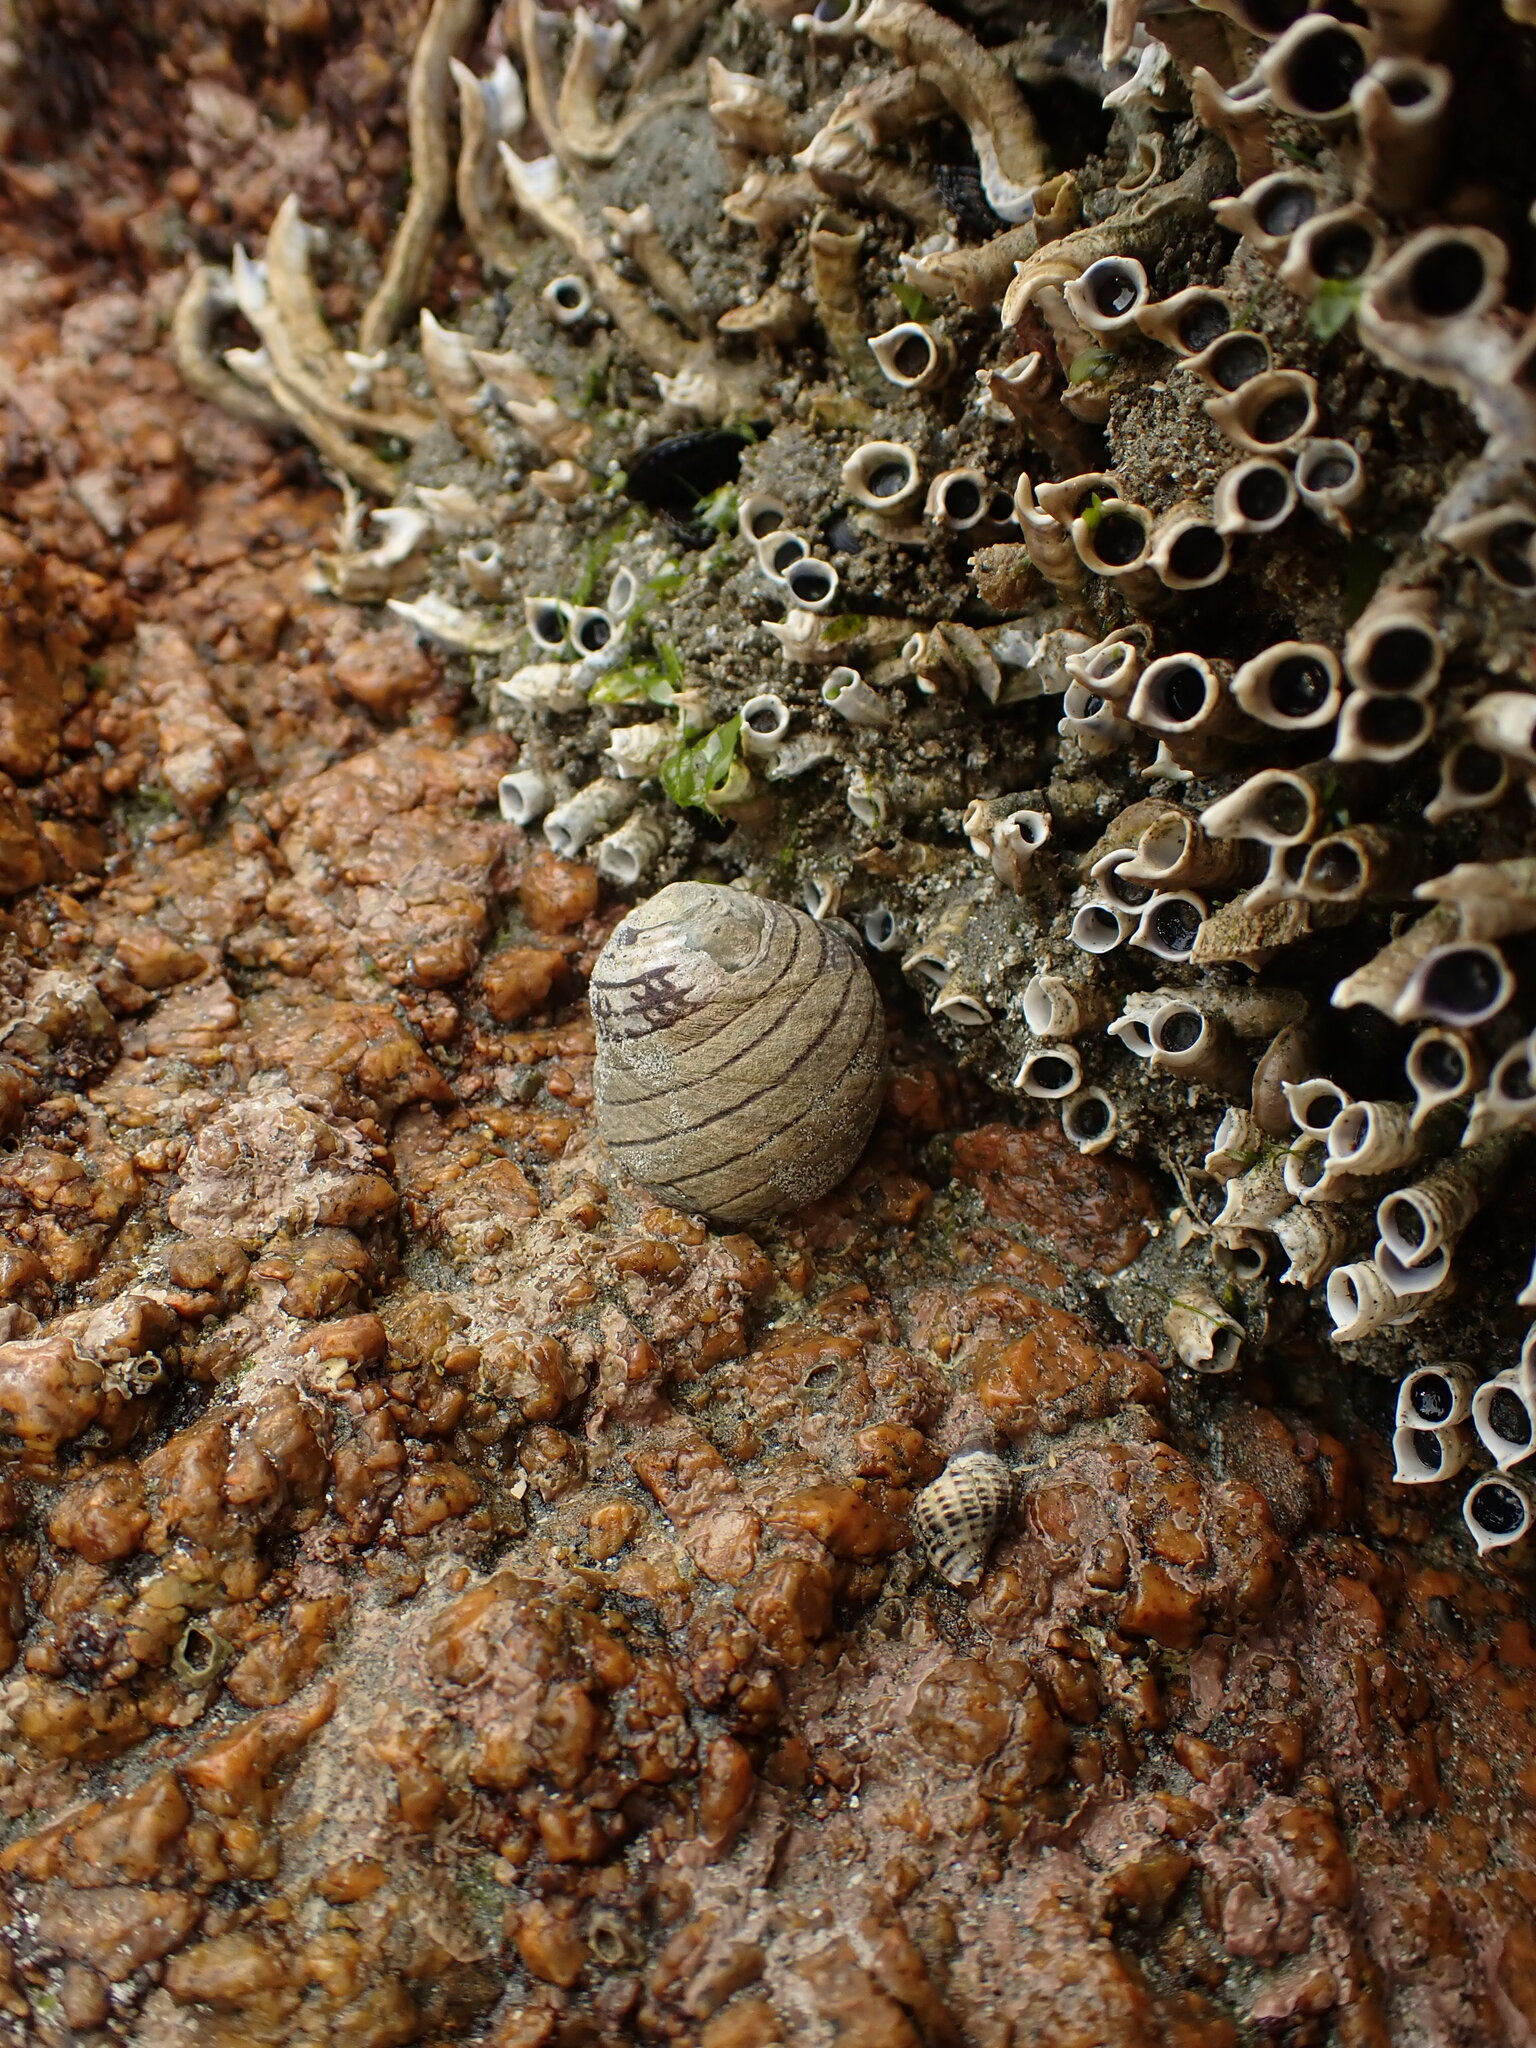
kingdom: Animalia
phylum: Mollusca
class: Gastropoda
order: Trochida
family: Trochidae
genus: Diloma
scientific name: Diloma aethiops
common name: Scorched monodont
